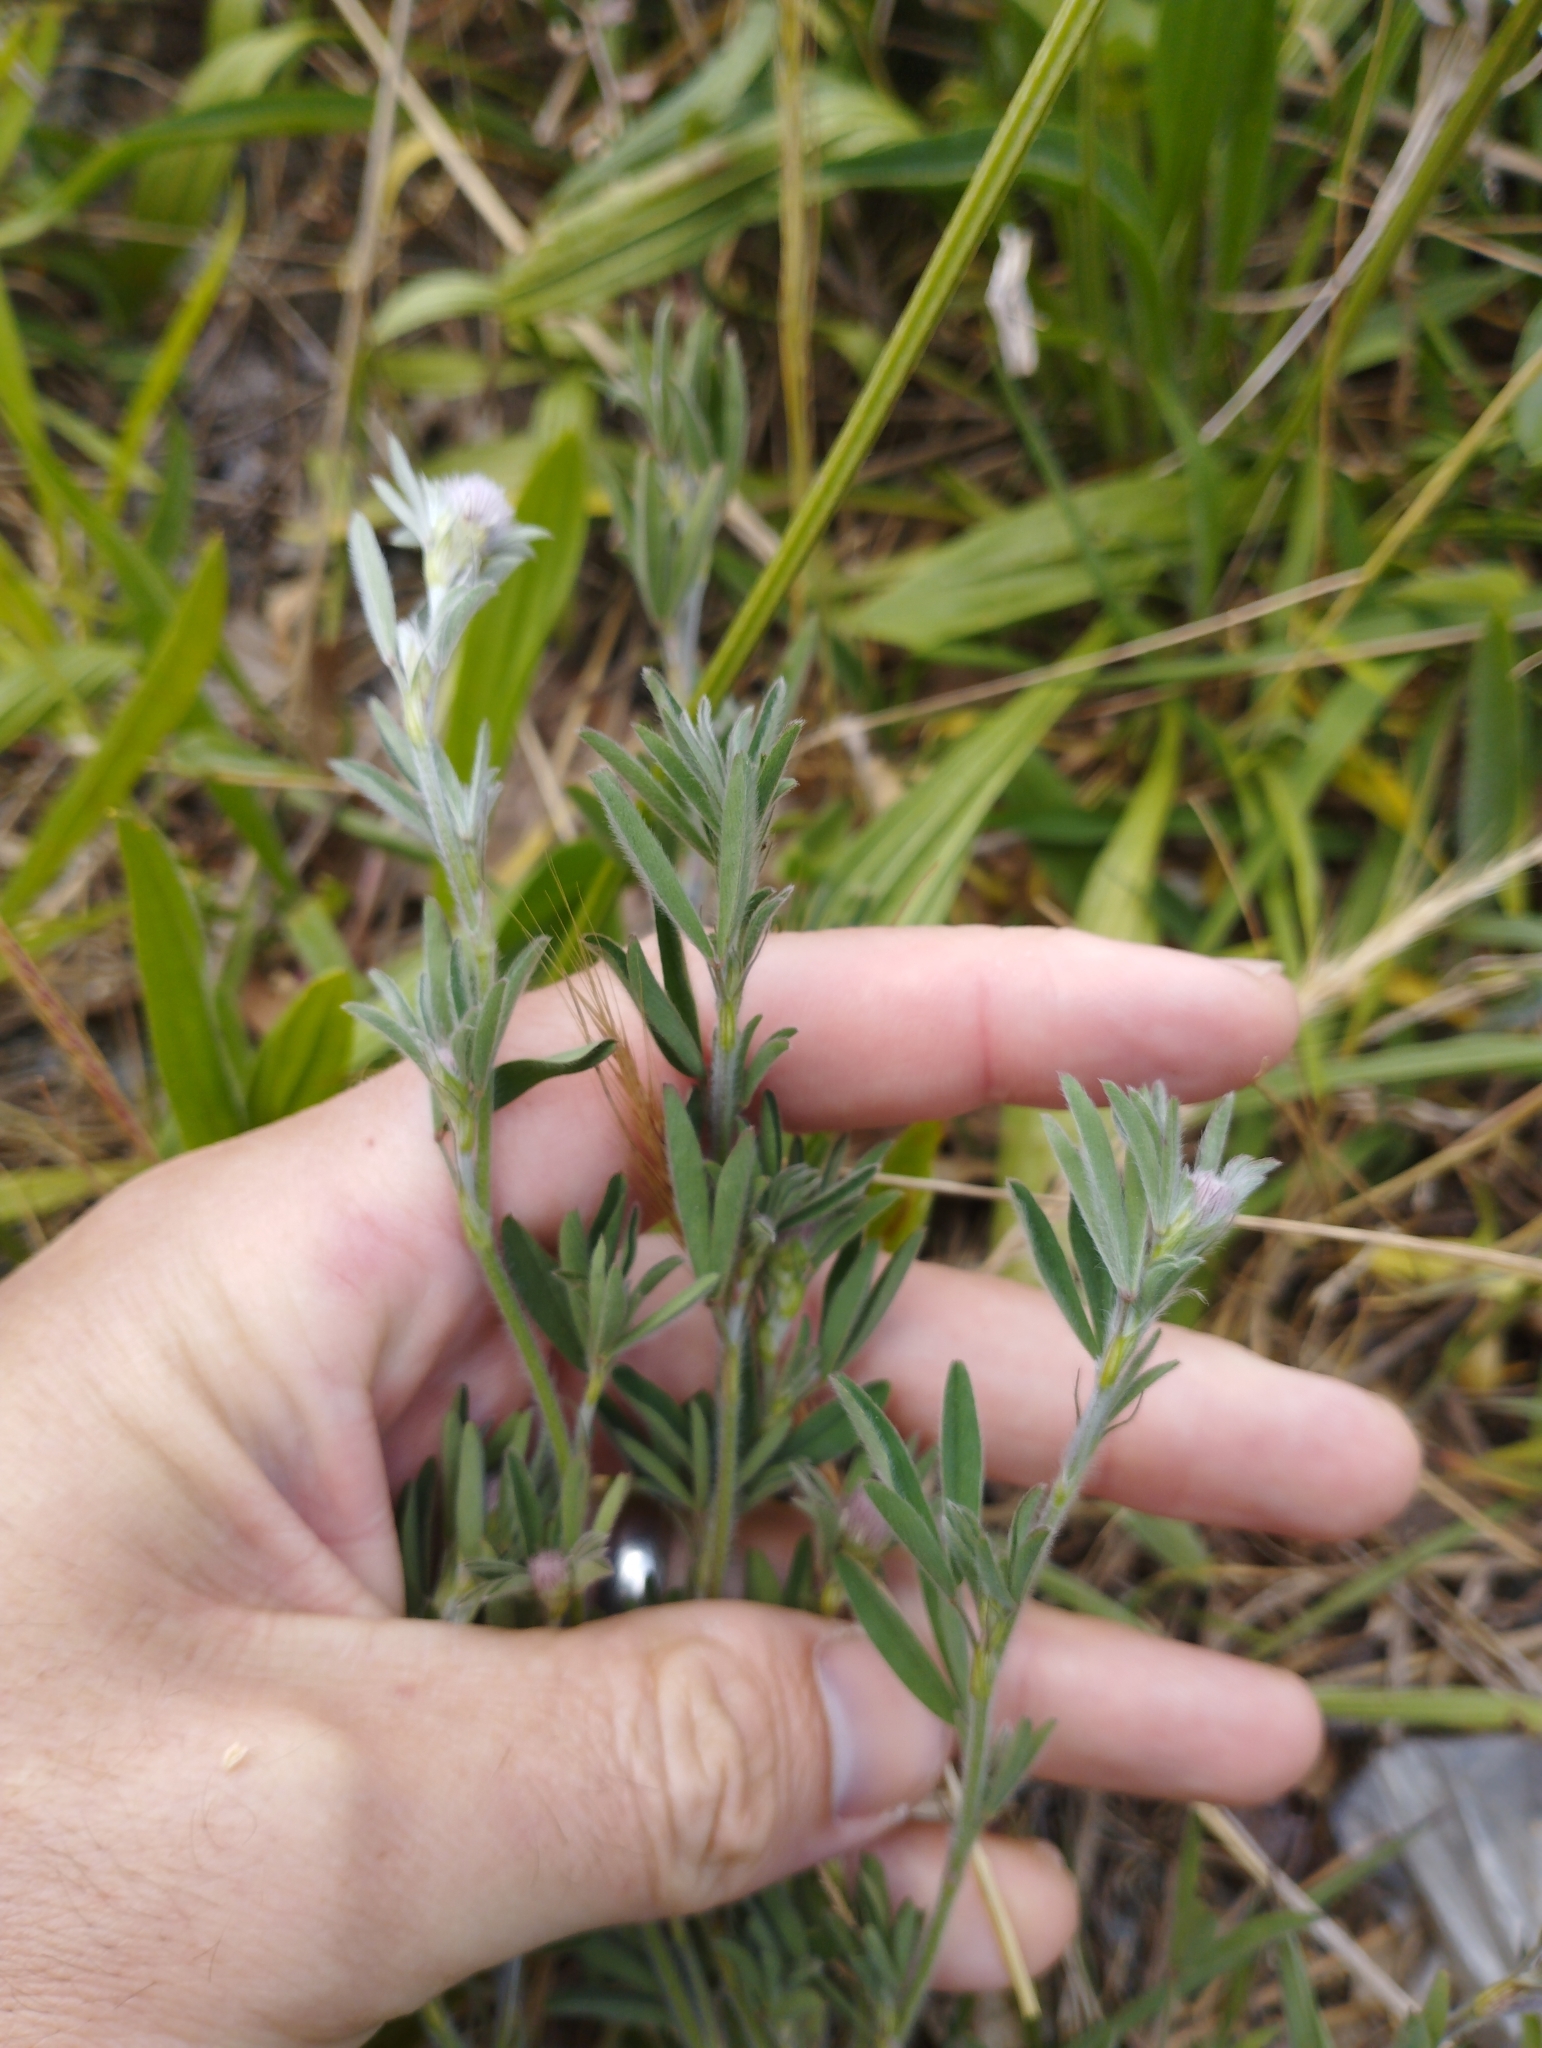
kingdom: Plantae
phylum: Tracheophyta
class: Magnoliopsida
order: Fabales
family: Fabaceae
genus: Trifolium
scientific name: Trifolium arvense
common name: Hare's-foot clover
